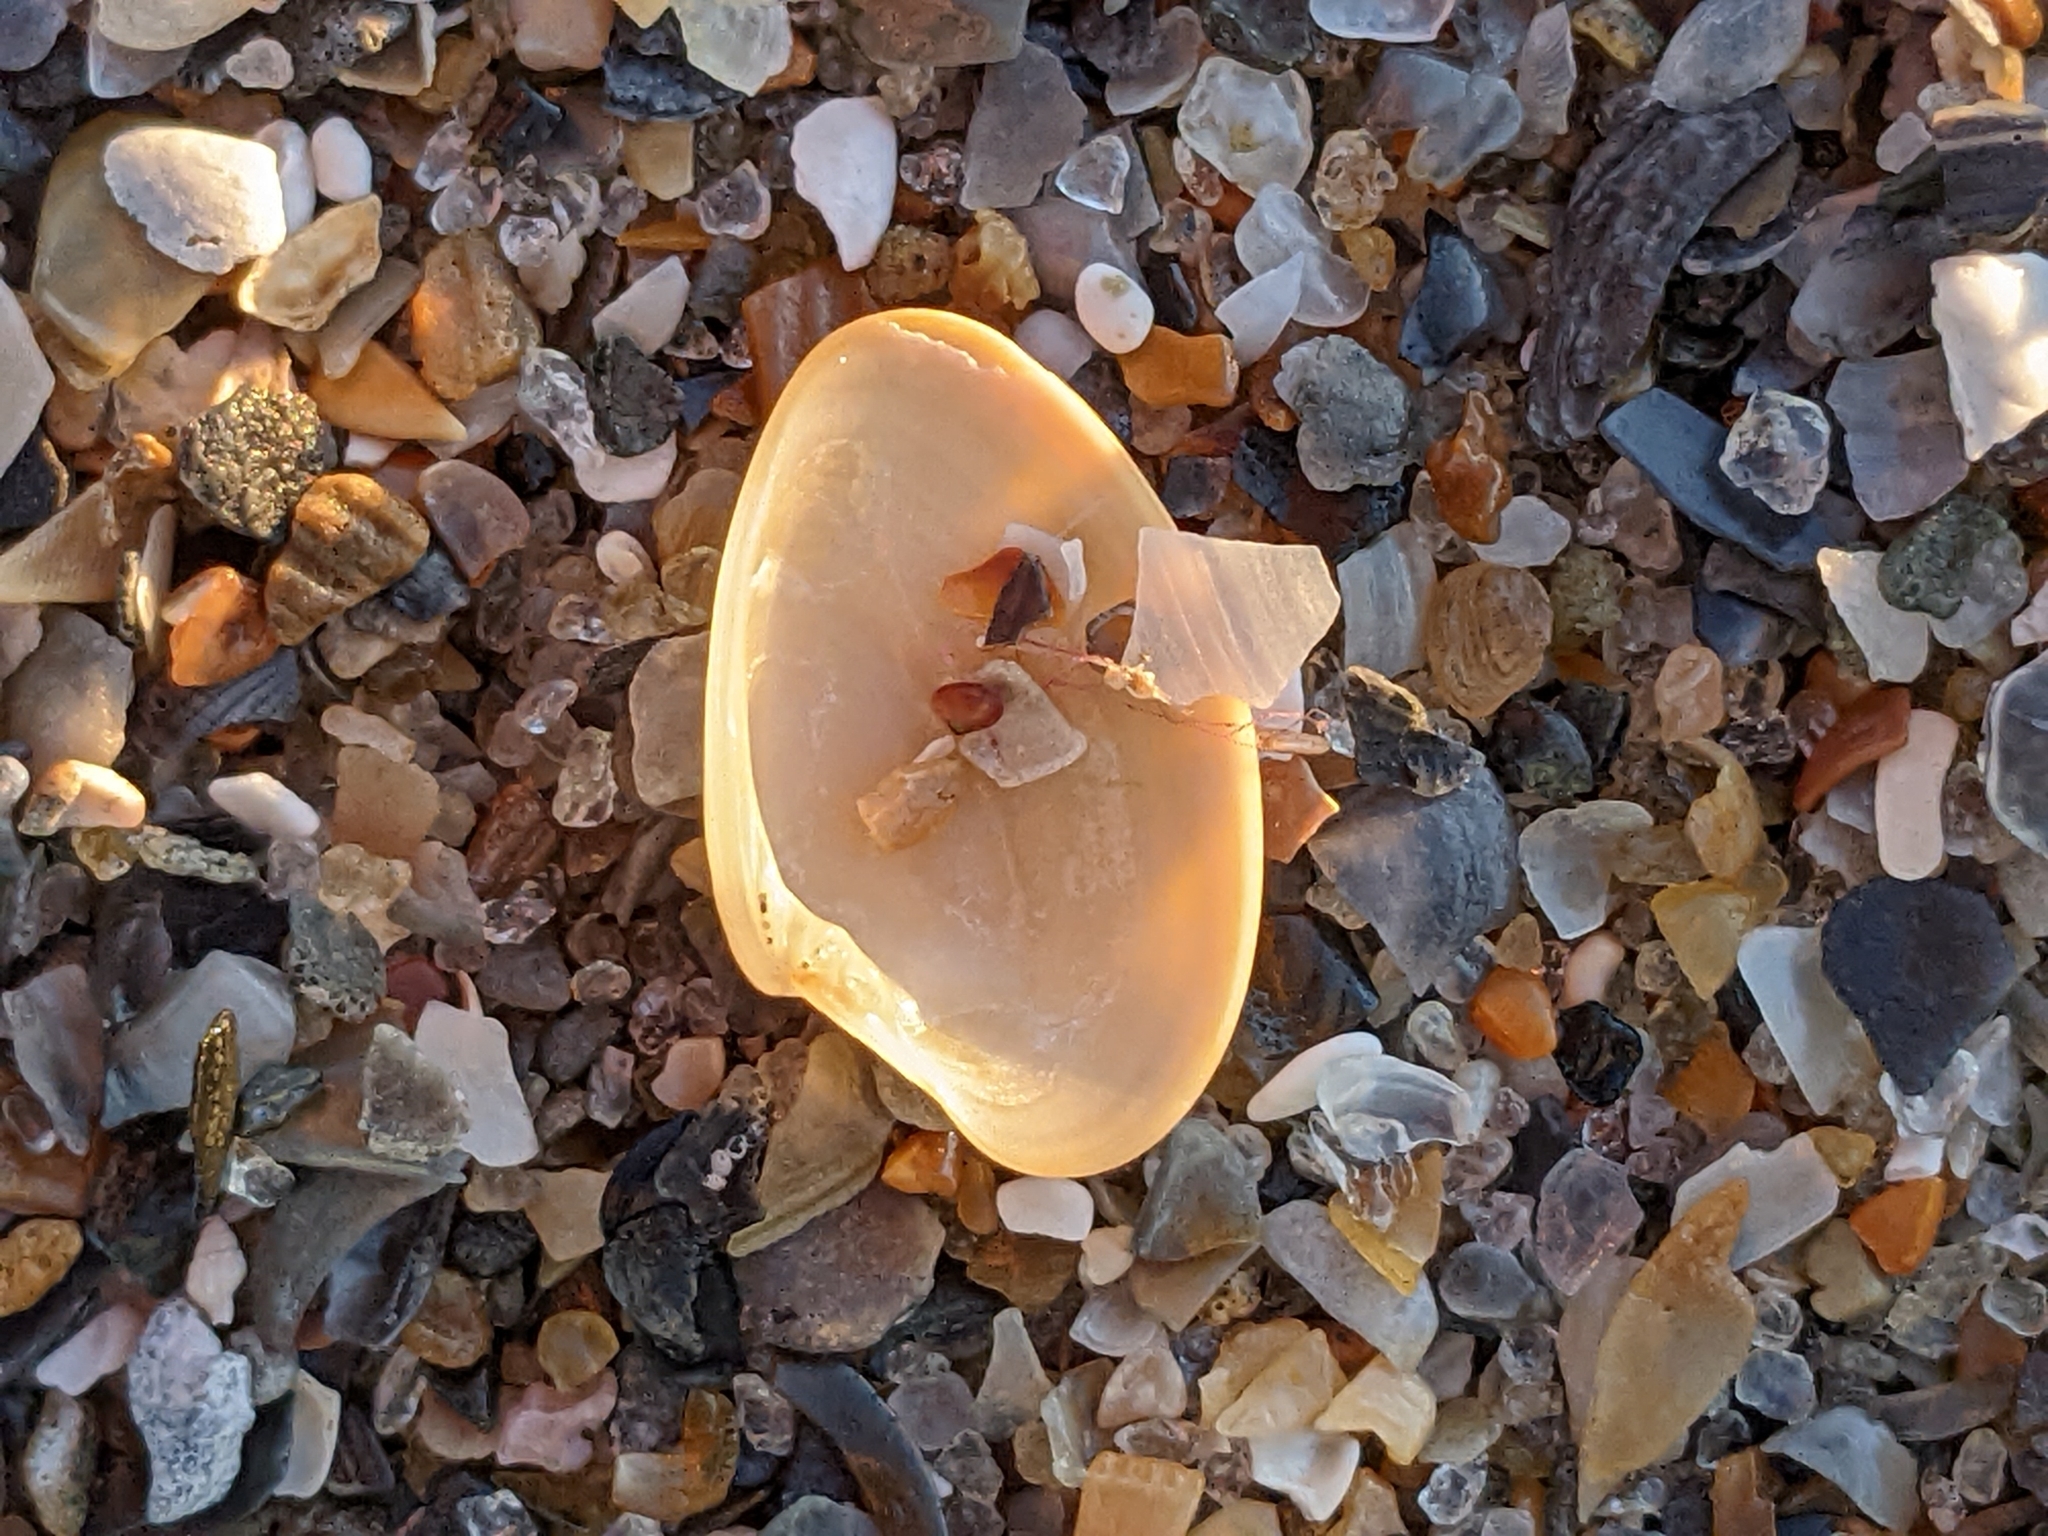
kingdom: Animalia
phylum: Mollusca
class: Bivalvia
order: Venerida
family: Veneridae
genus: Macrocallista
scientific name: Macrocallista nimbosa
